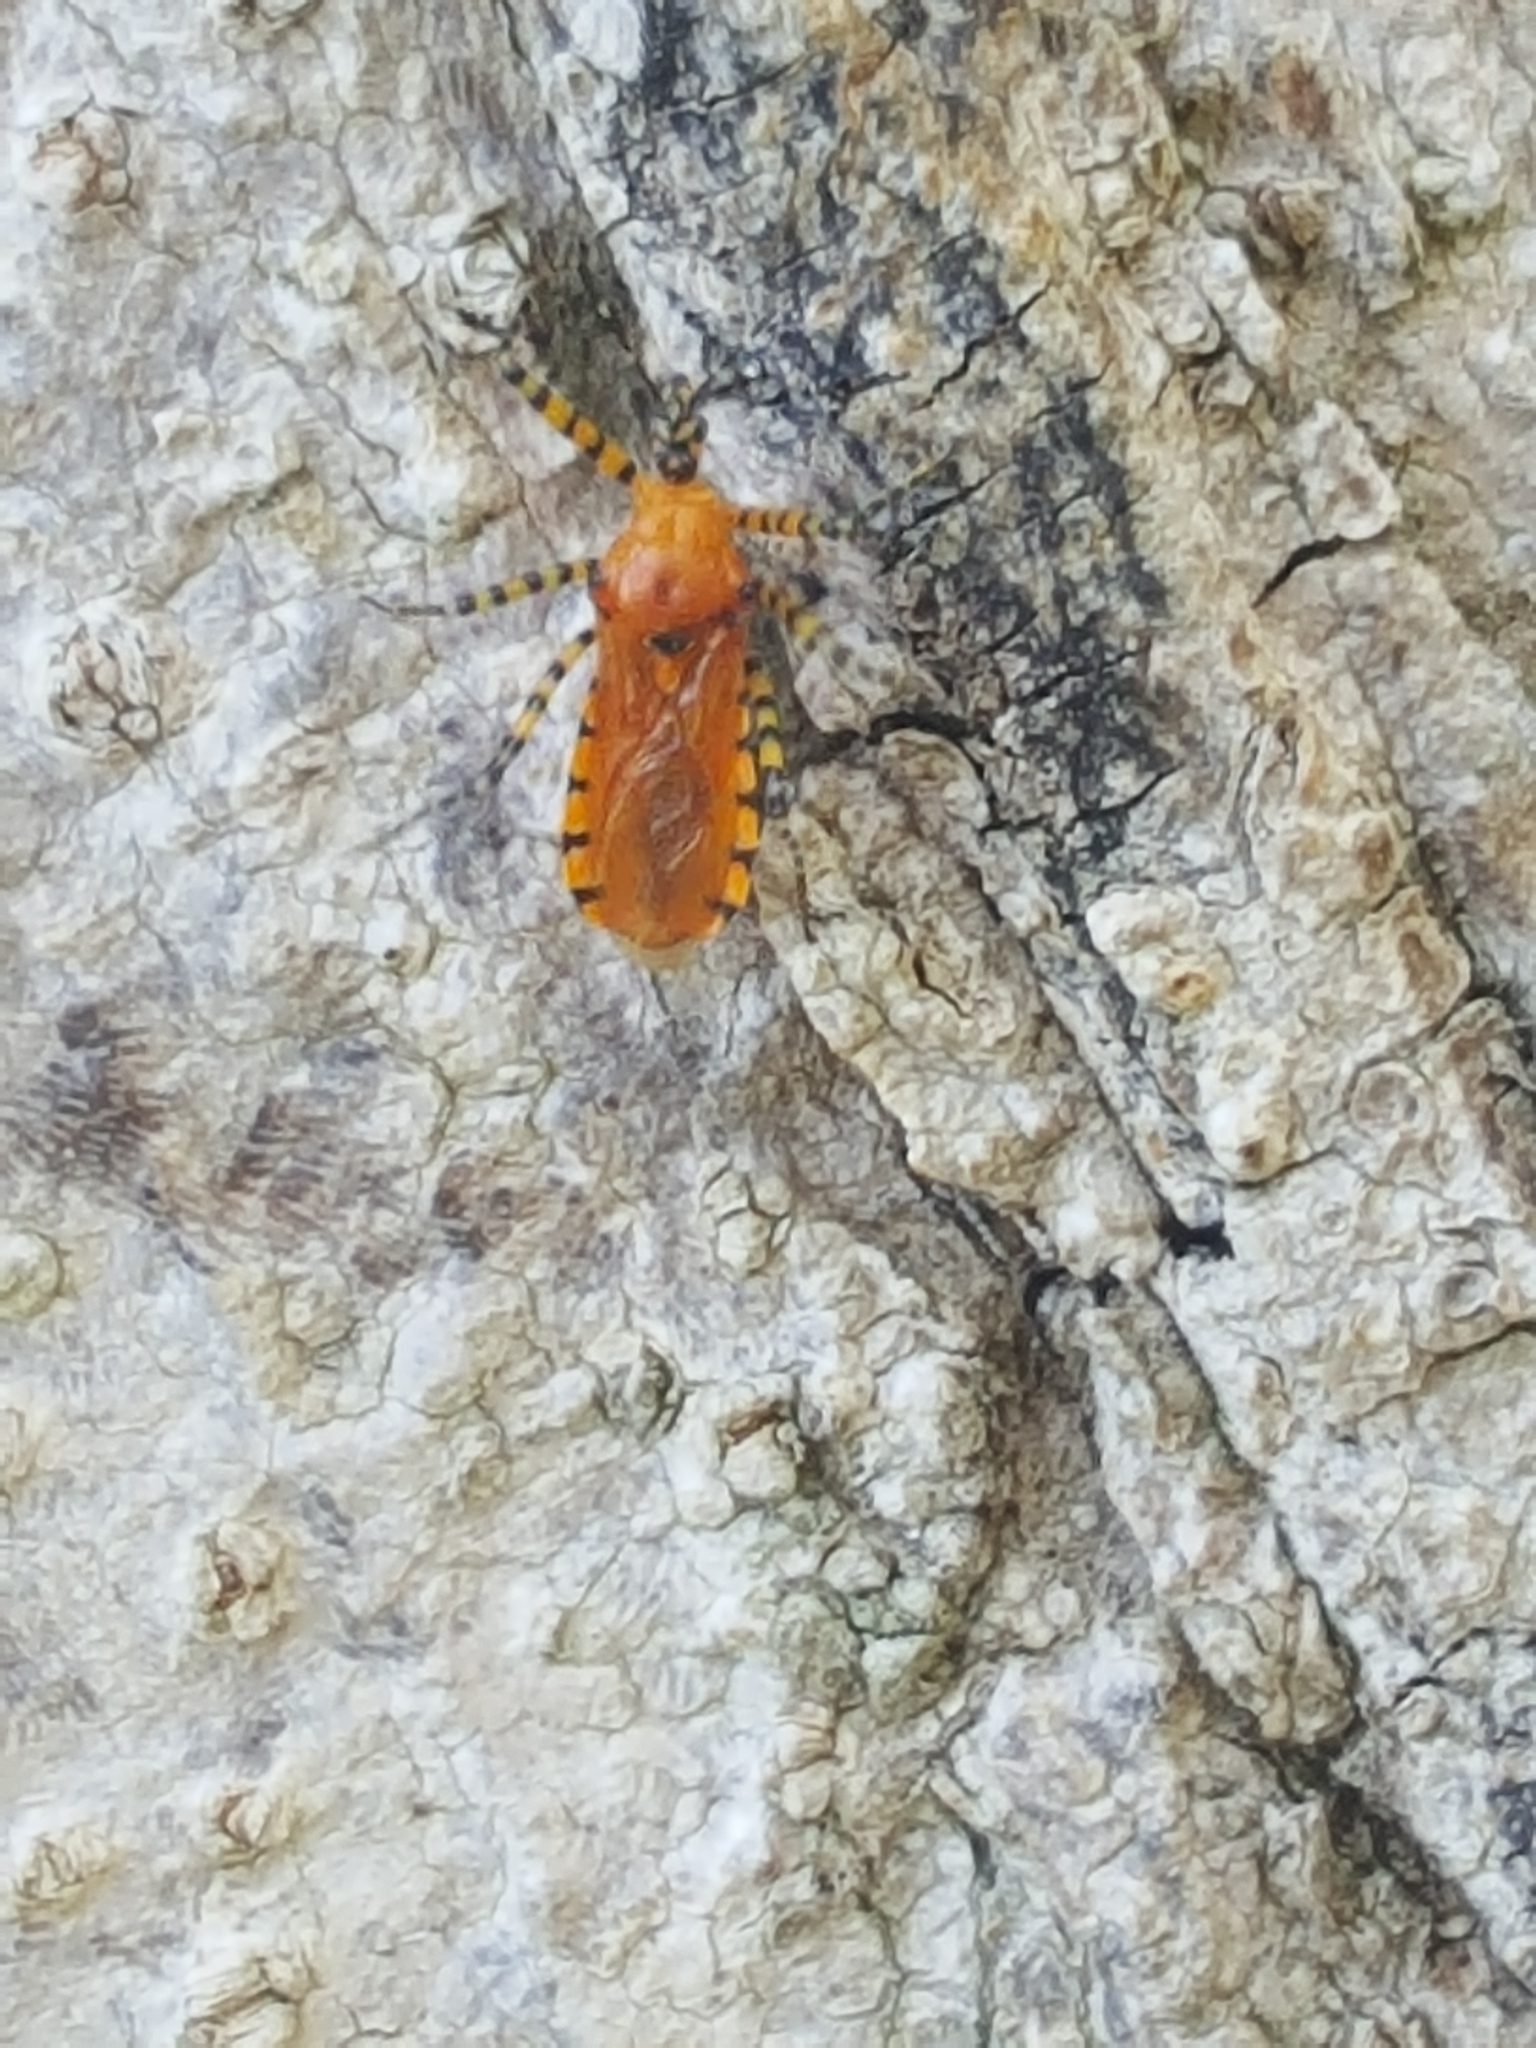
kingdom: Animalia
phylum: Arthropoda
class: Insecta
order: Hemiptera
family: Reduviidae
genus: Pselliopus
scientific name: Pselliopus barberi
